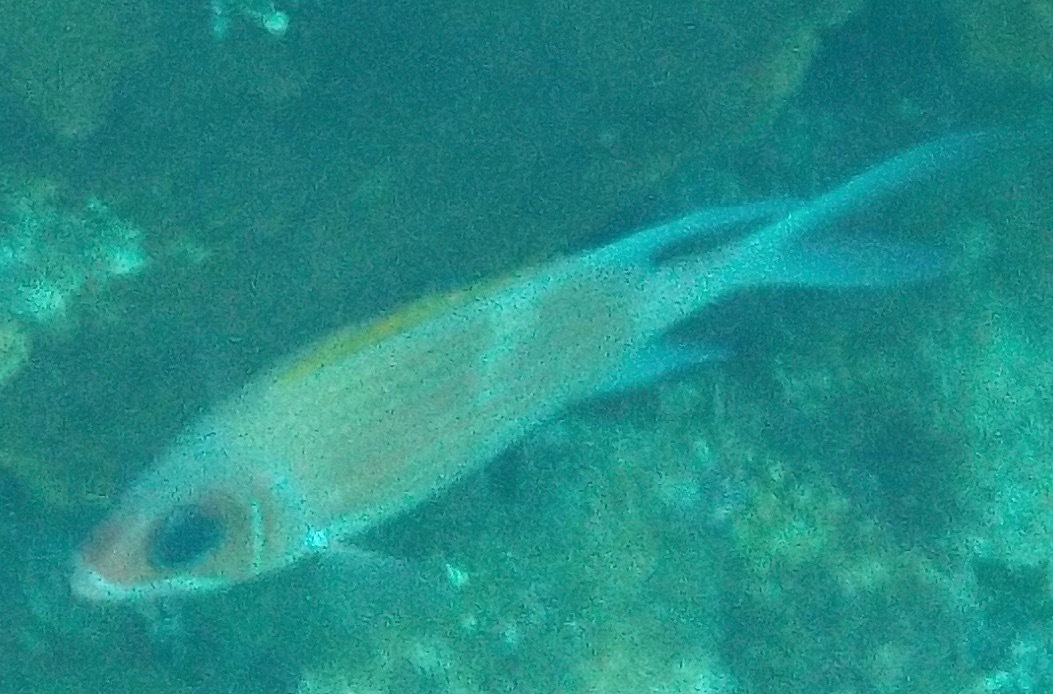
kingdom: Animalia
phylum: Chordata
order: Beryciformes
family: Holocentridae
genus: Holocentrus
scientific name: Holocentrus adscensionis
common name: Squirrelfish
